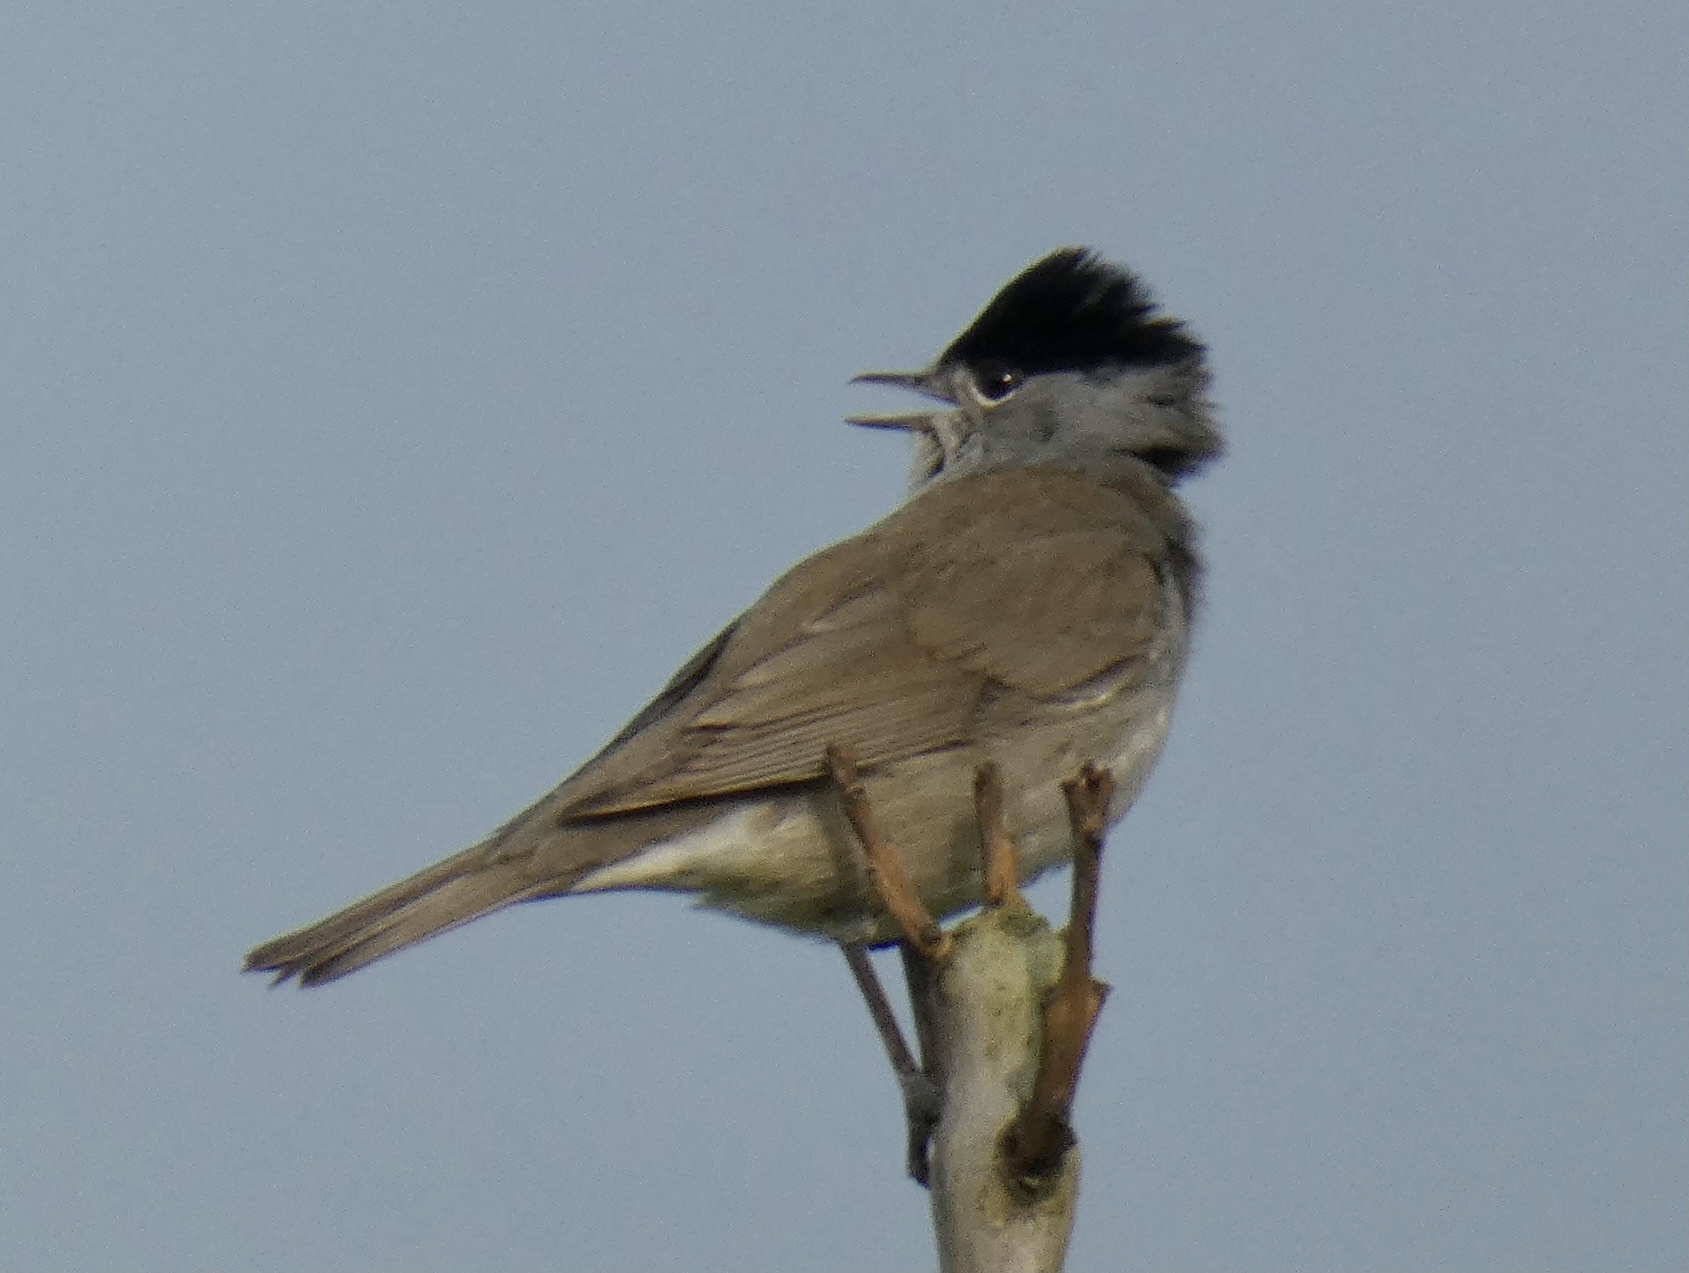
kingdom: Animalia
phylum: Chordata
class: Aves
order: Passeriformes
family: Sylviidae
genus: Sylvia
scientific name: Sylvia atricapilla
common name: Eurasian blackcap
